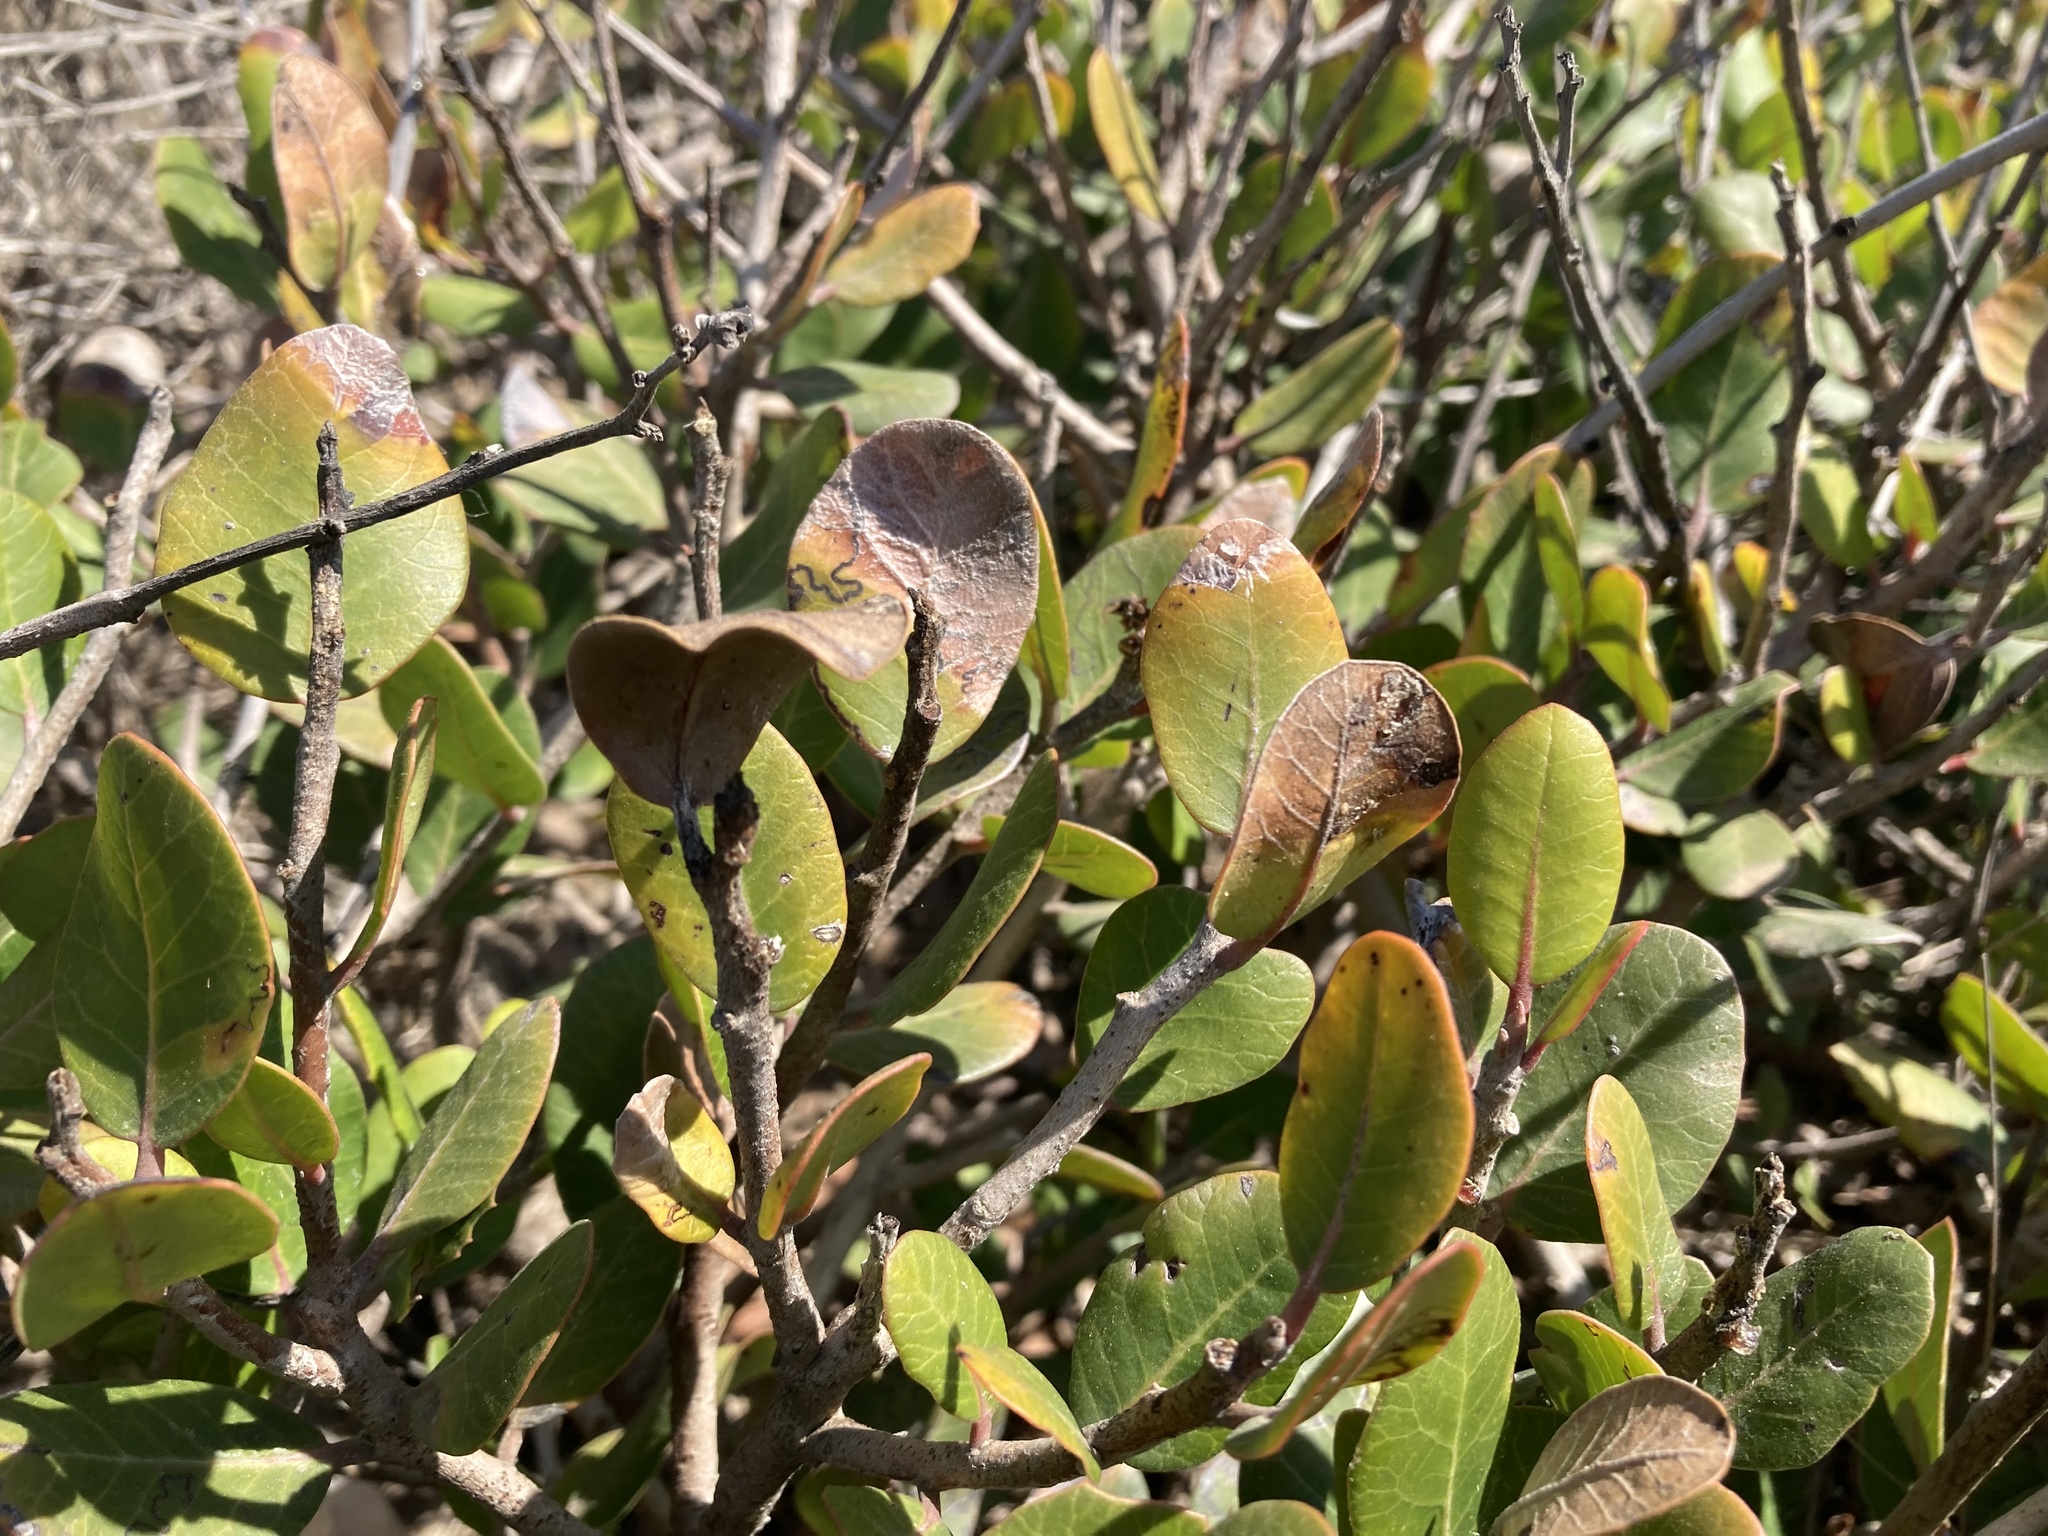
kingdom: Plantae
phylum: Tracheophyta
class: Magnoliopsida
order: Sapindales
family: Anacardiaceae
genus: Rhus
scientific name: Rhus integrifolia
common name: Lemonade sumac
